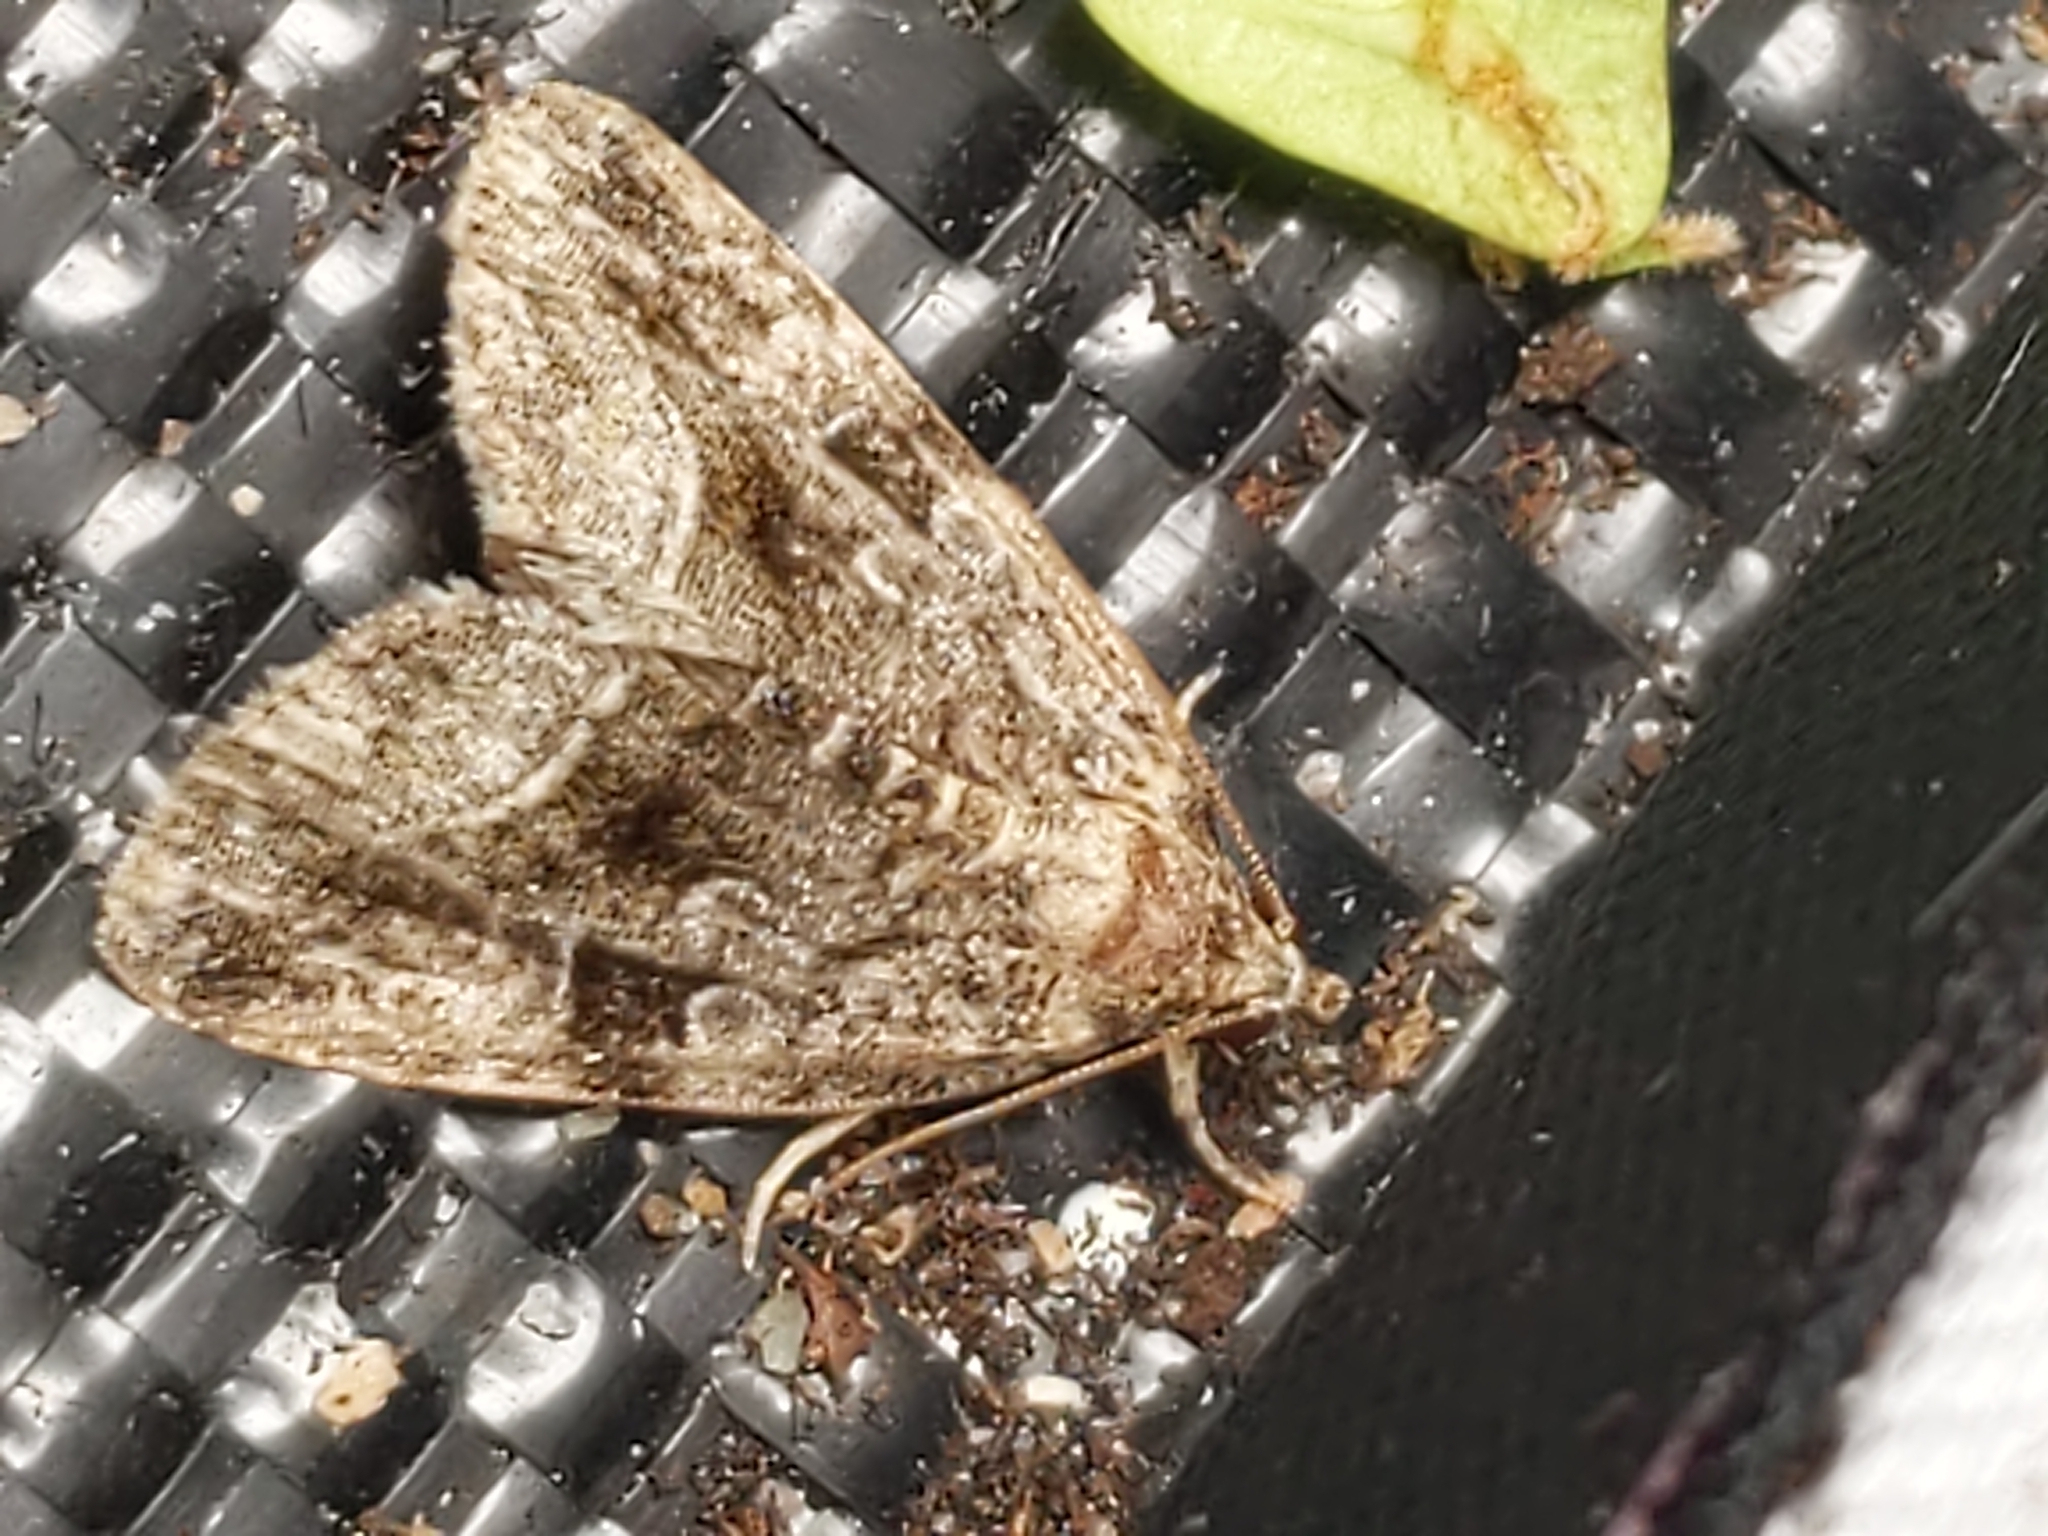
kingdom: Animalia
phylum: Arthropoda
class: Insecta
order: Lepidoptera
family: Noctuidae
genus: Protodeltote
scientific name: Protodeltote muscosula
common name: Large mossy glyph
